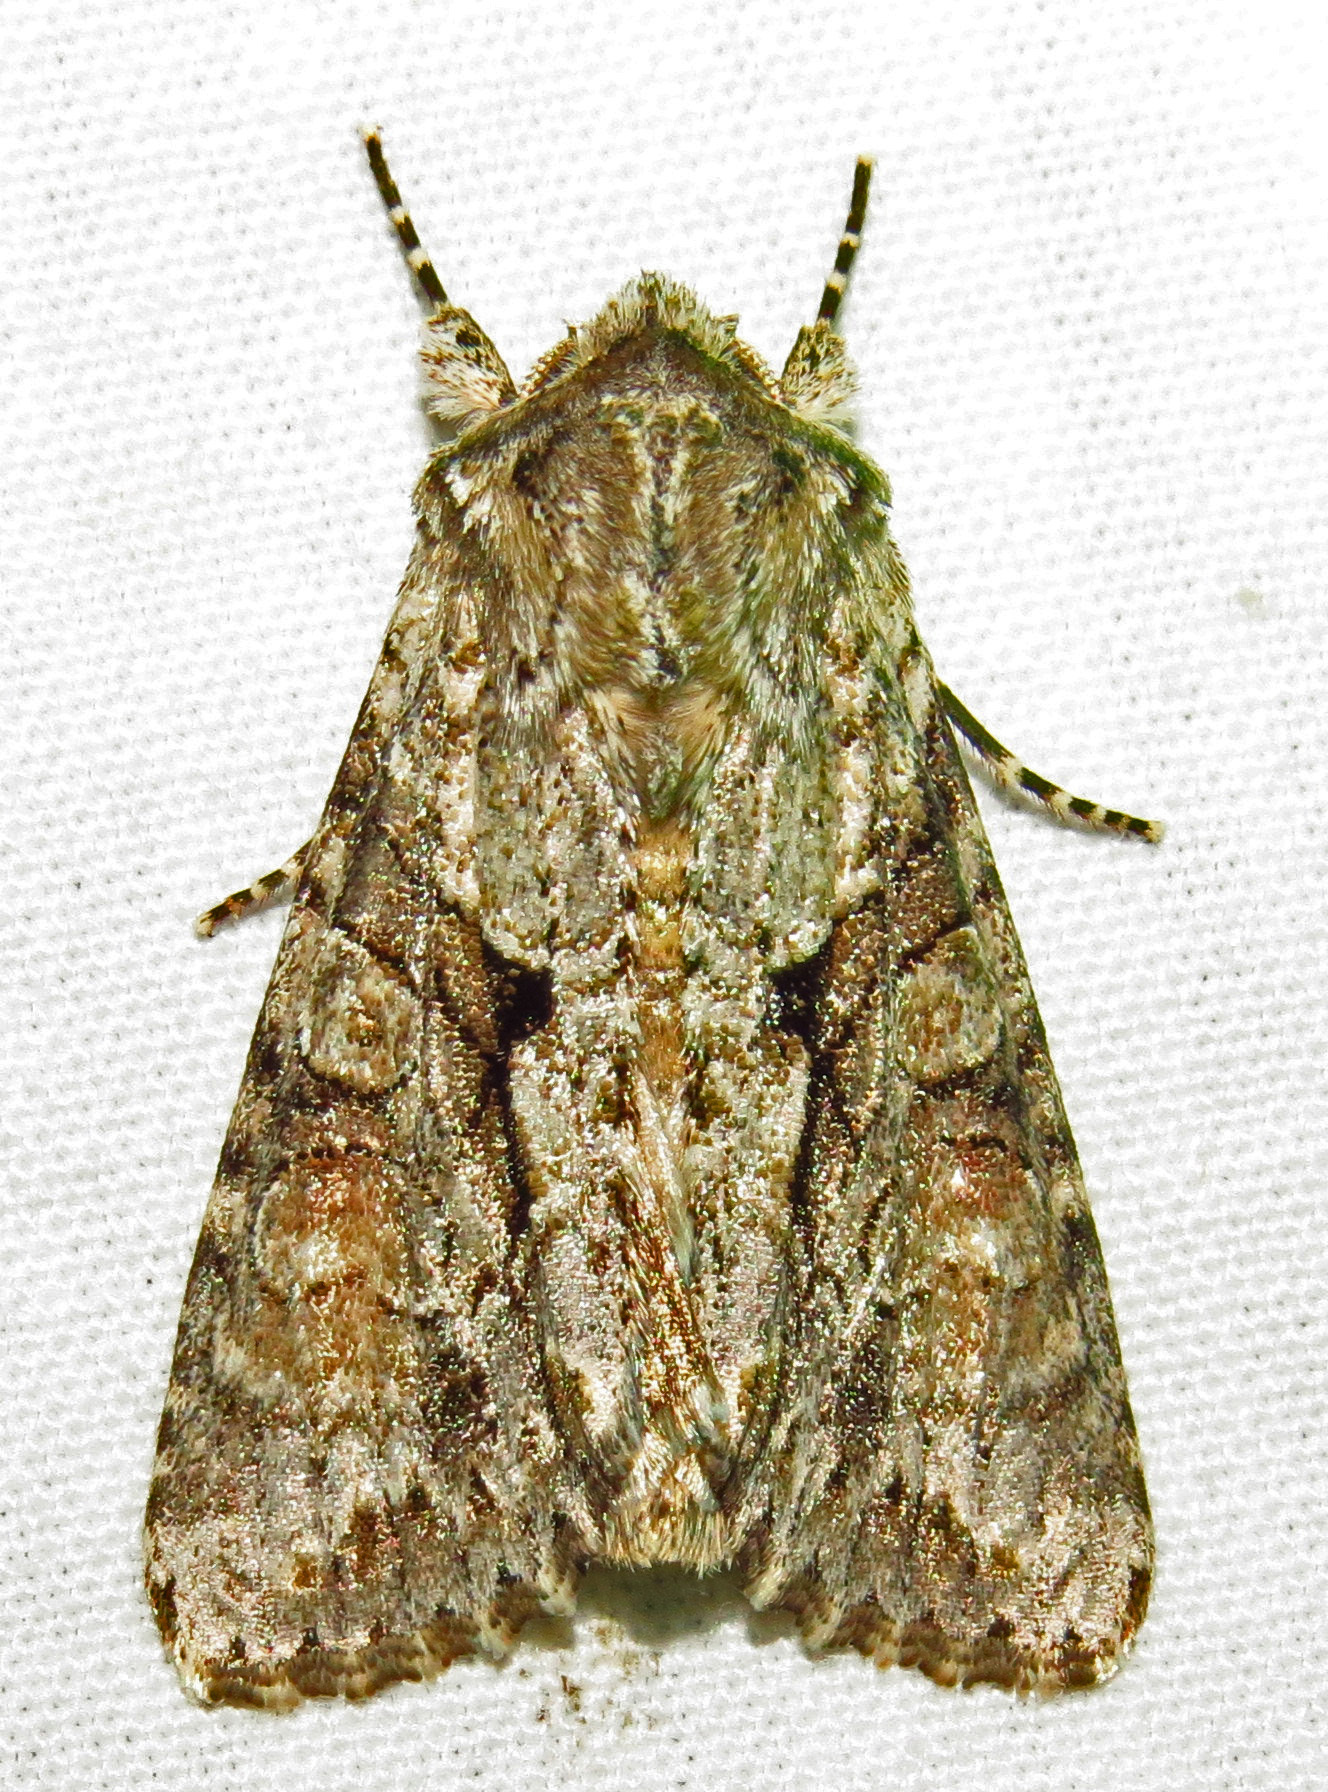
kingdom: Animalia
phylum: Arthropoda
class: Insecta
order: Lepidoptera
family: Noctuidae
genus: Achatia
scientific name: Achatia distincta
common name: Distinct quaker
